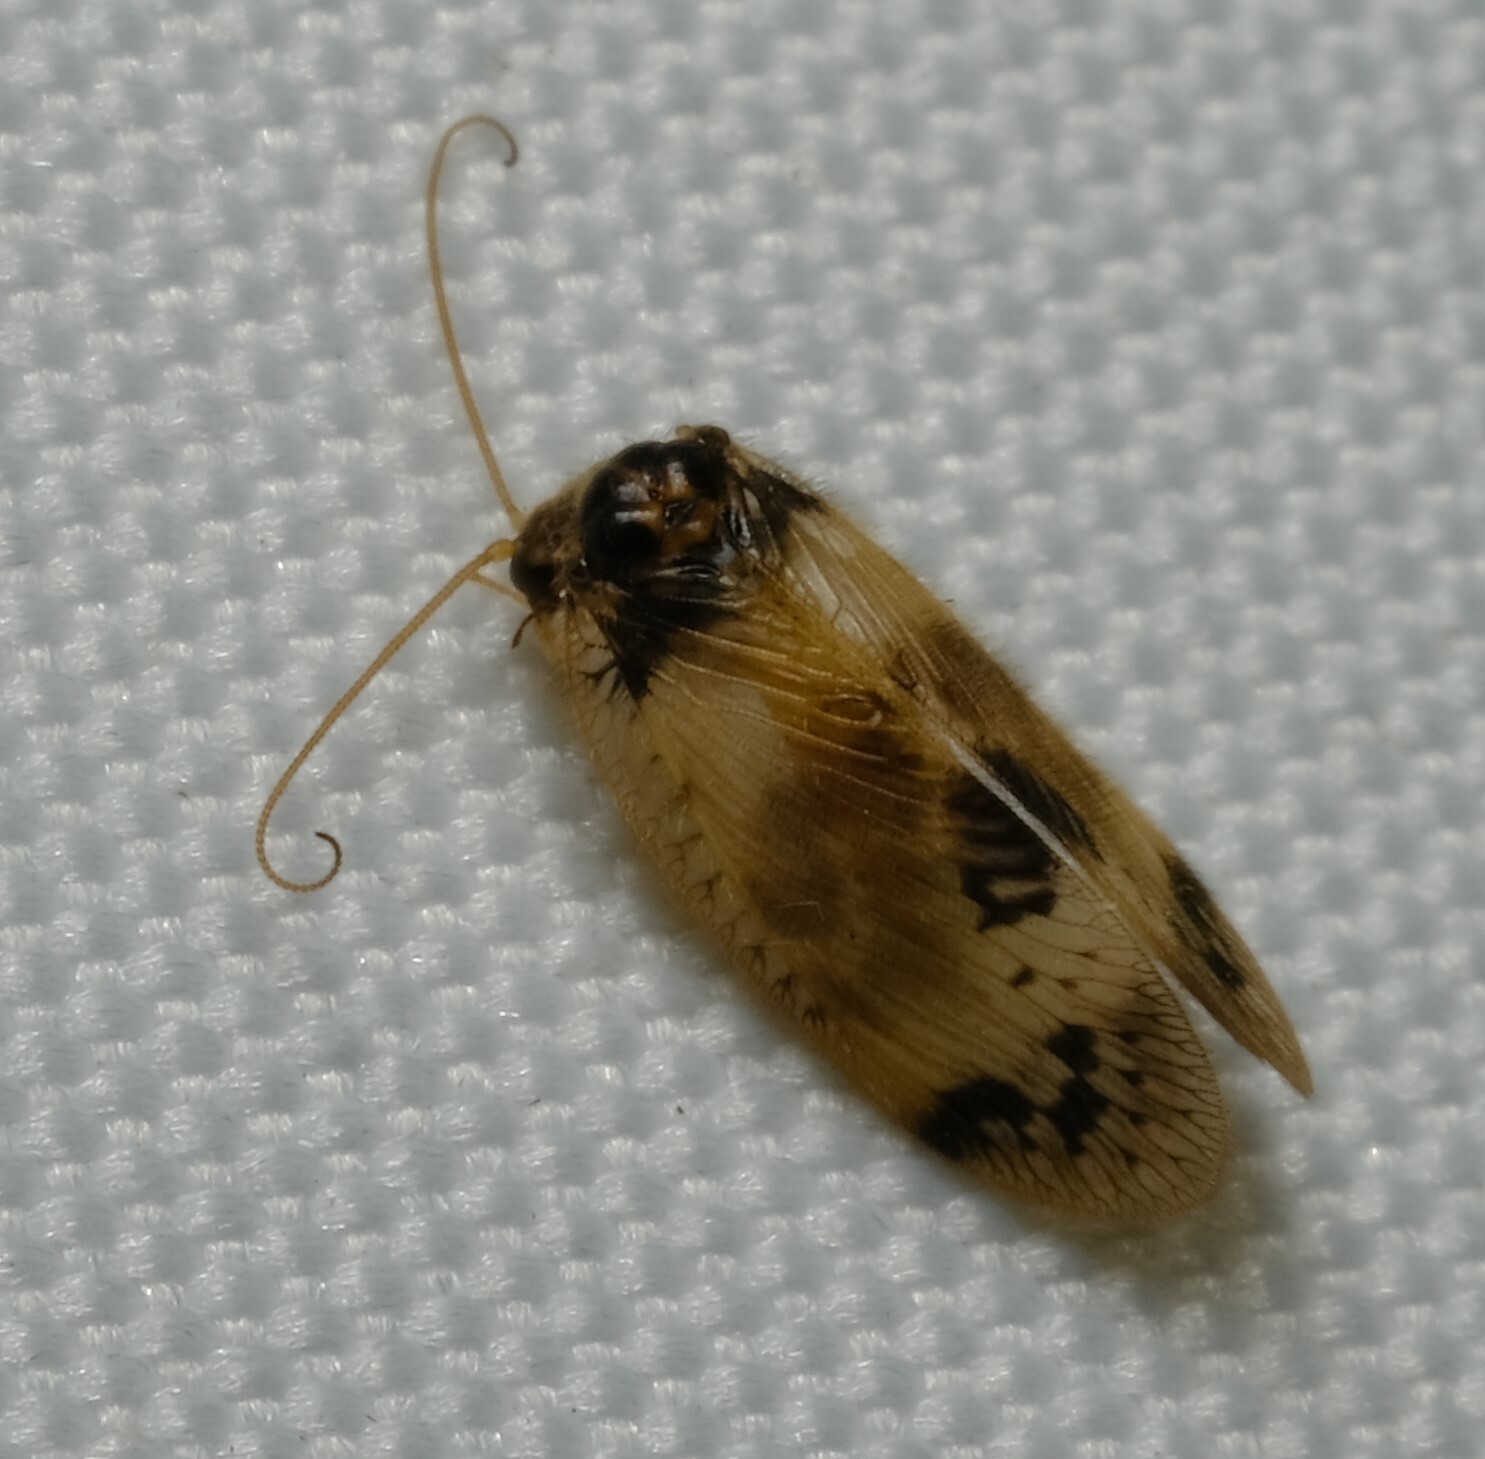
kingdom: Animalia
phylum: Arthropoda
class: Insecta
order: Neuroptera
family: Hemerobiidae
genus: Carobius
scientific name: Carobius pulchellus
